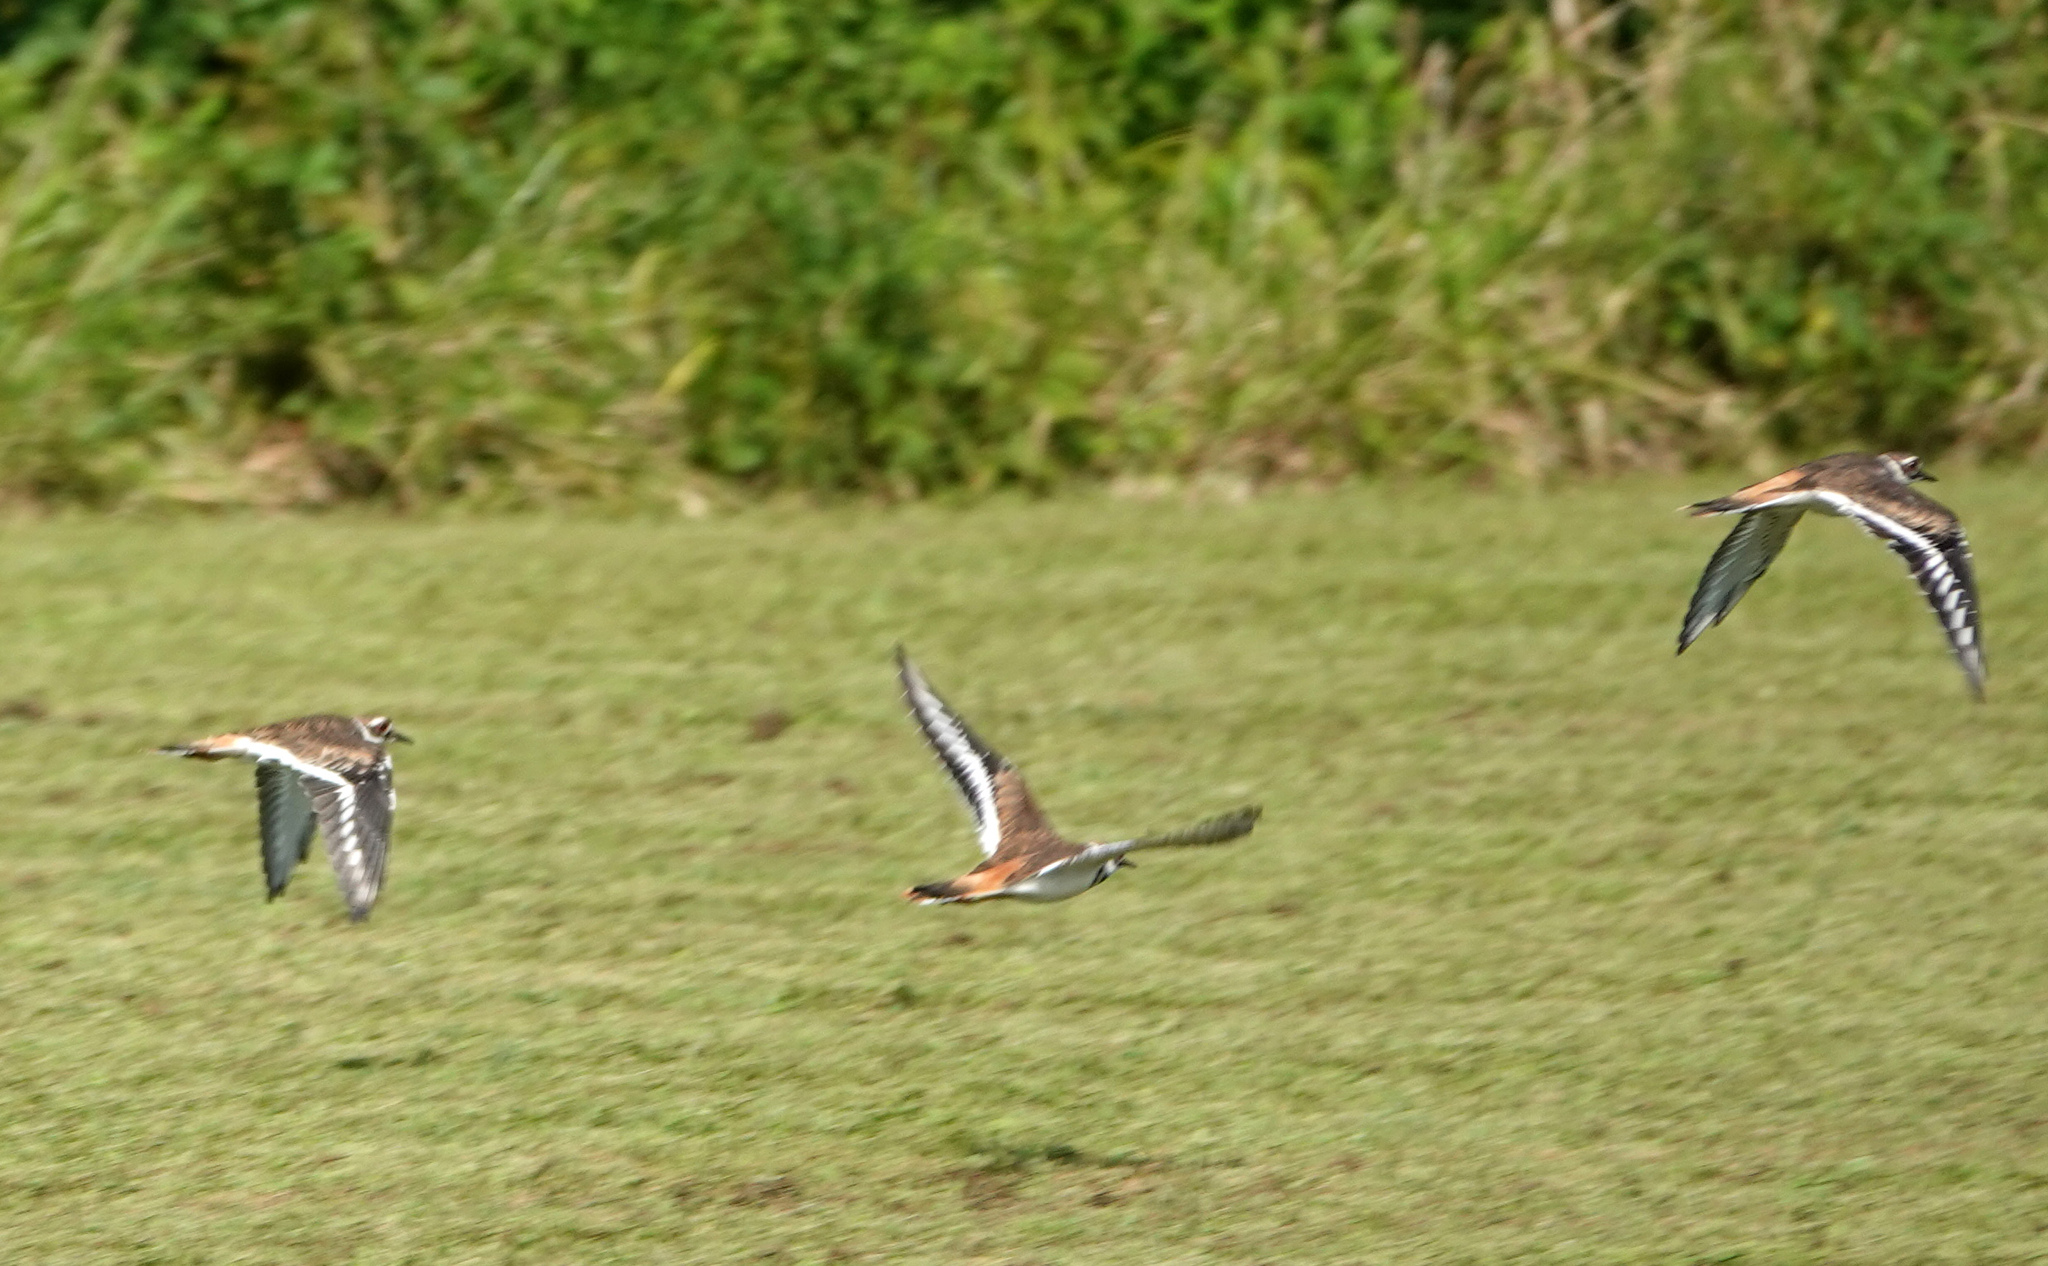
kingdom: Animalia
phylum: Chordata
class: Aves
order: Charadriiformes
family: Charadriidae
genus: Charadrius
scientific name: Charadrius vociferus
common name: Killdeer
